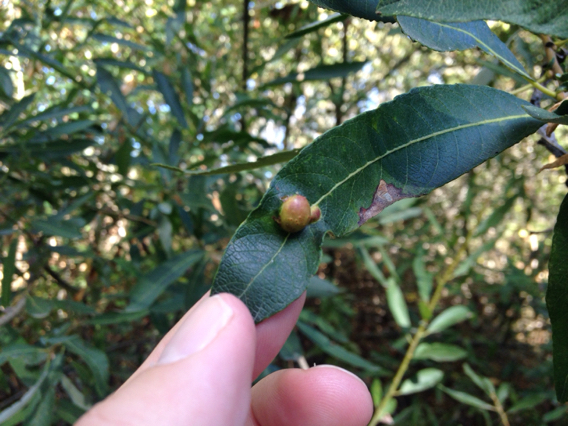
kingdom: Animalia
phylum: Arthropoda
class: Insecta
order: Hymenoptera
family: Tenthredinidae
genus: Euura
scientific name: Euura
